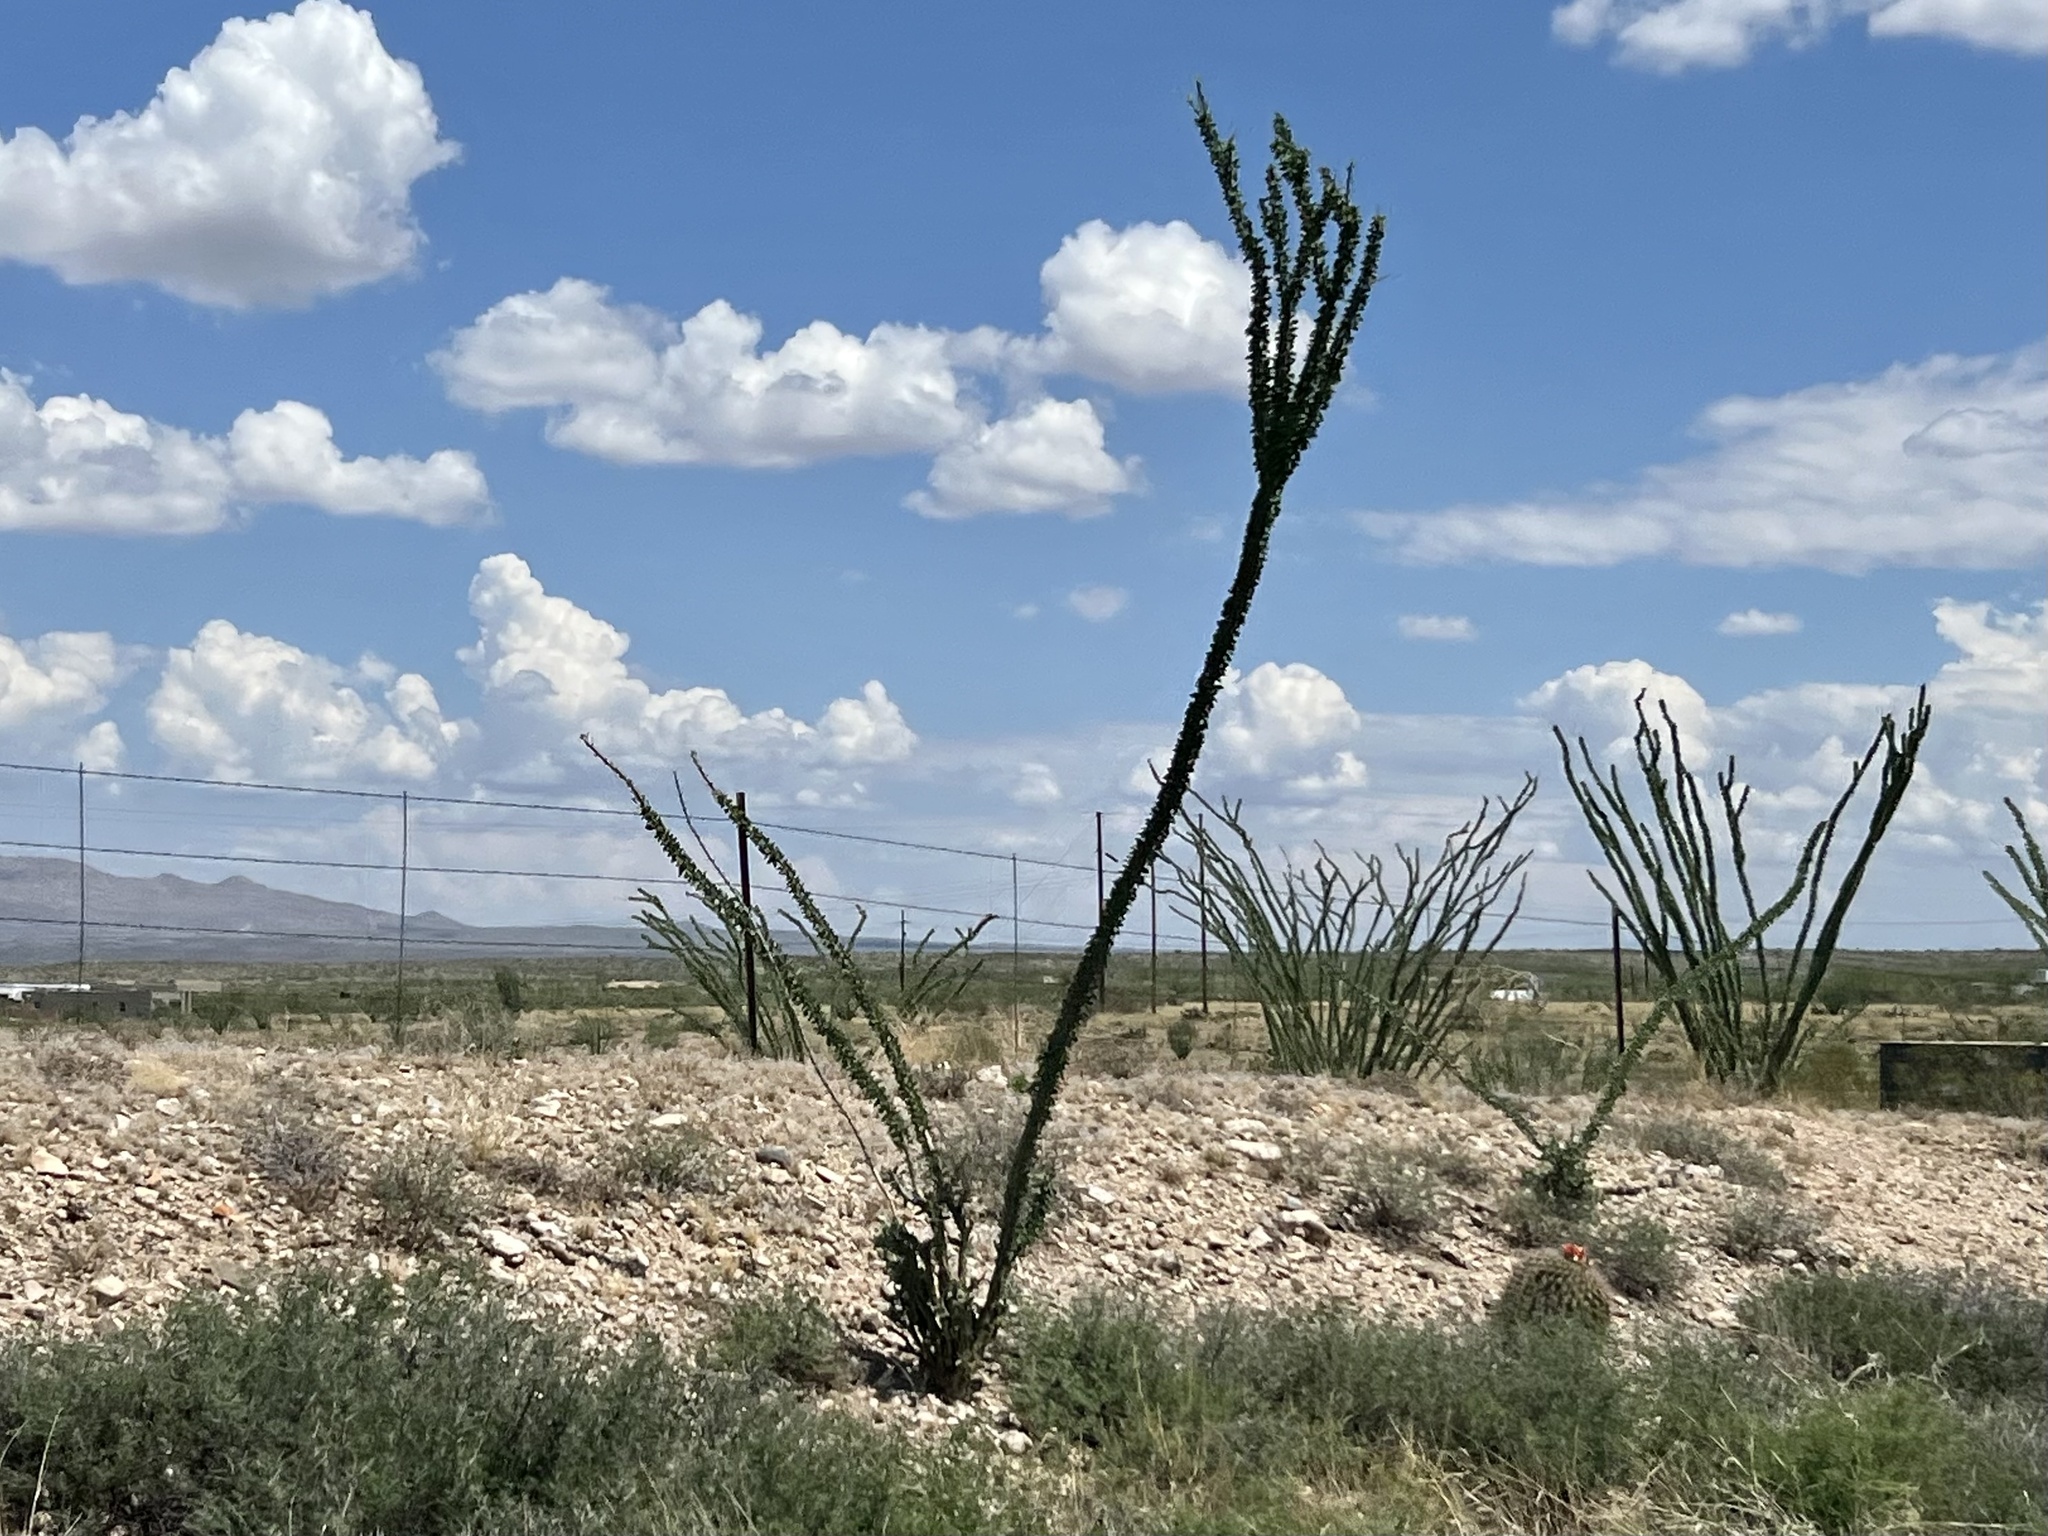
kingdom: Plantae
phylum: Tracheophyta
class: Magnoliopsida
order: Ericales
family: Fouquieriaceae
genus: Fouquieria
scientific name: Fouquieria splendens
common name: Vine-cactus
